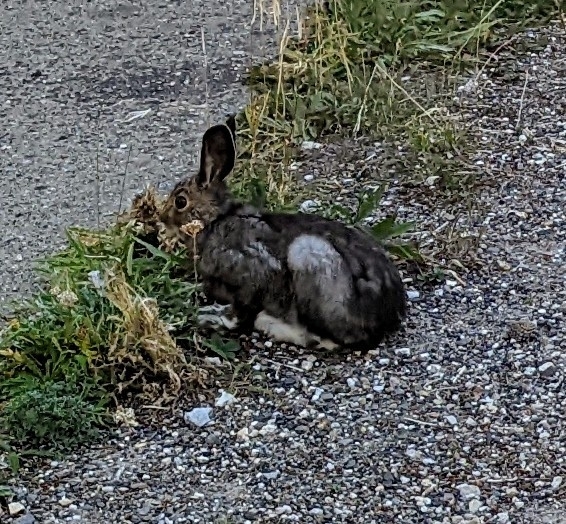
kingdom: Animalia
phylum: Chordata
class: Mammalia
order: Lagomorpha
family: Leporidae
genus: Lepus
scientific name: Lepus americanus
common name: Snowshoe hare
